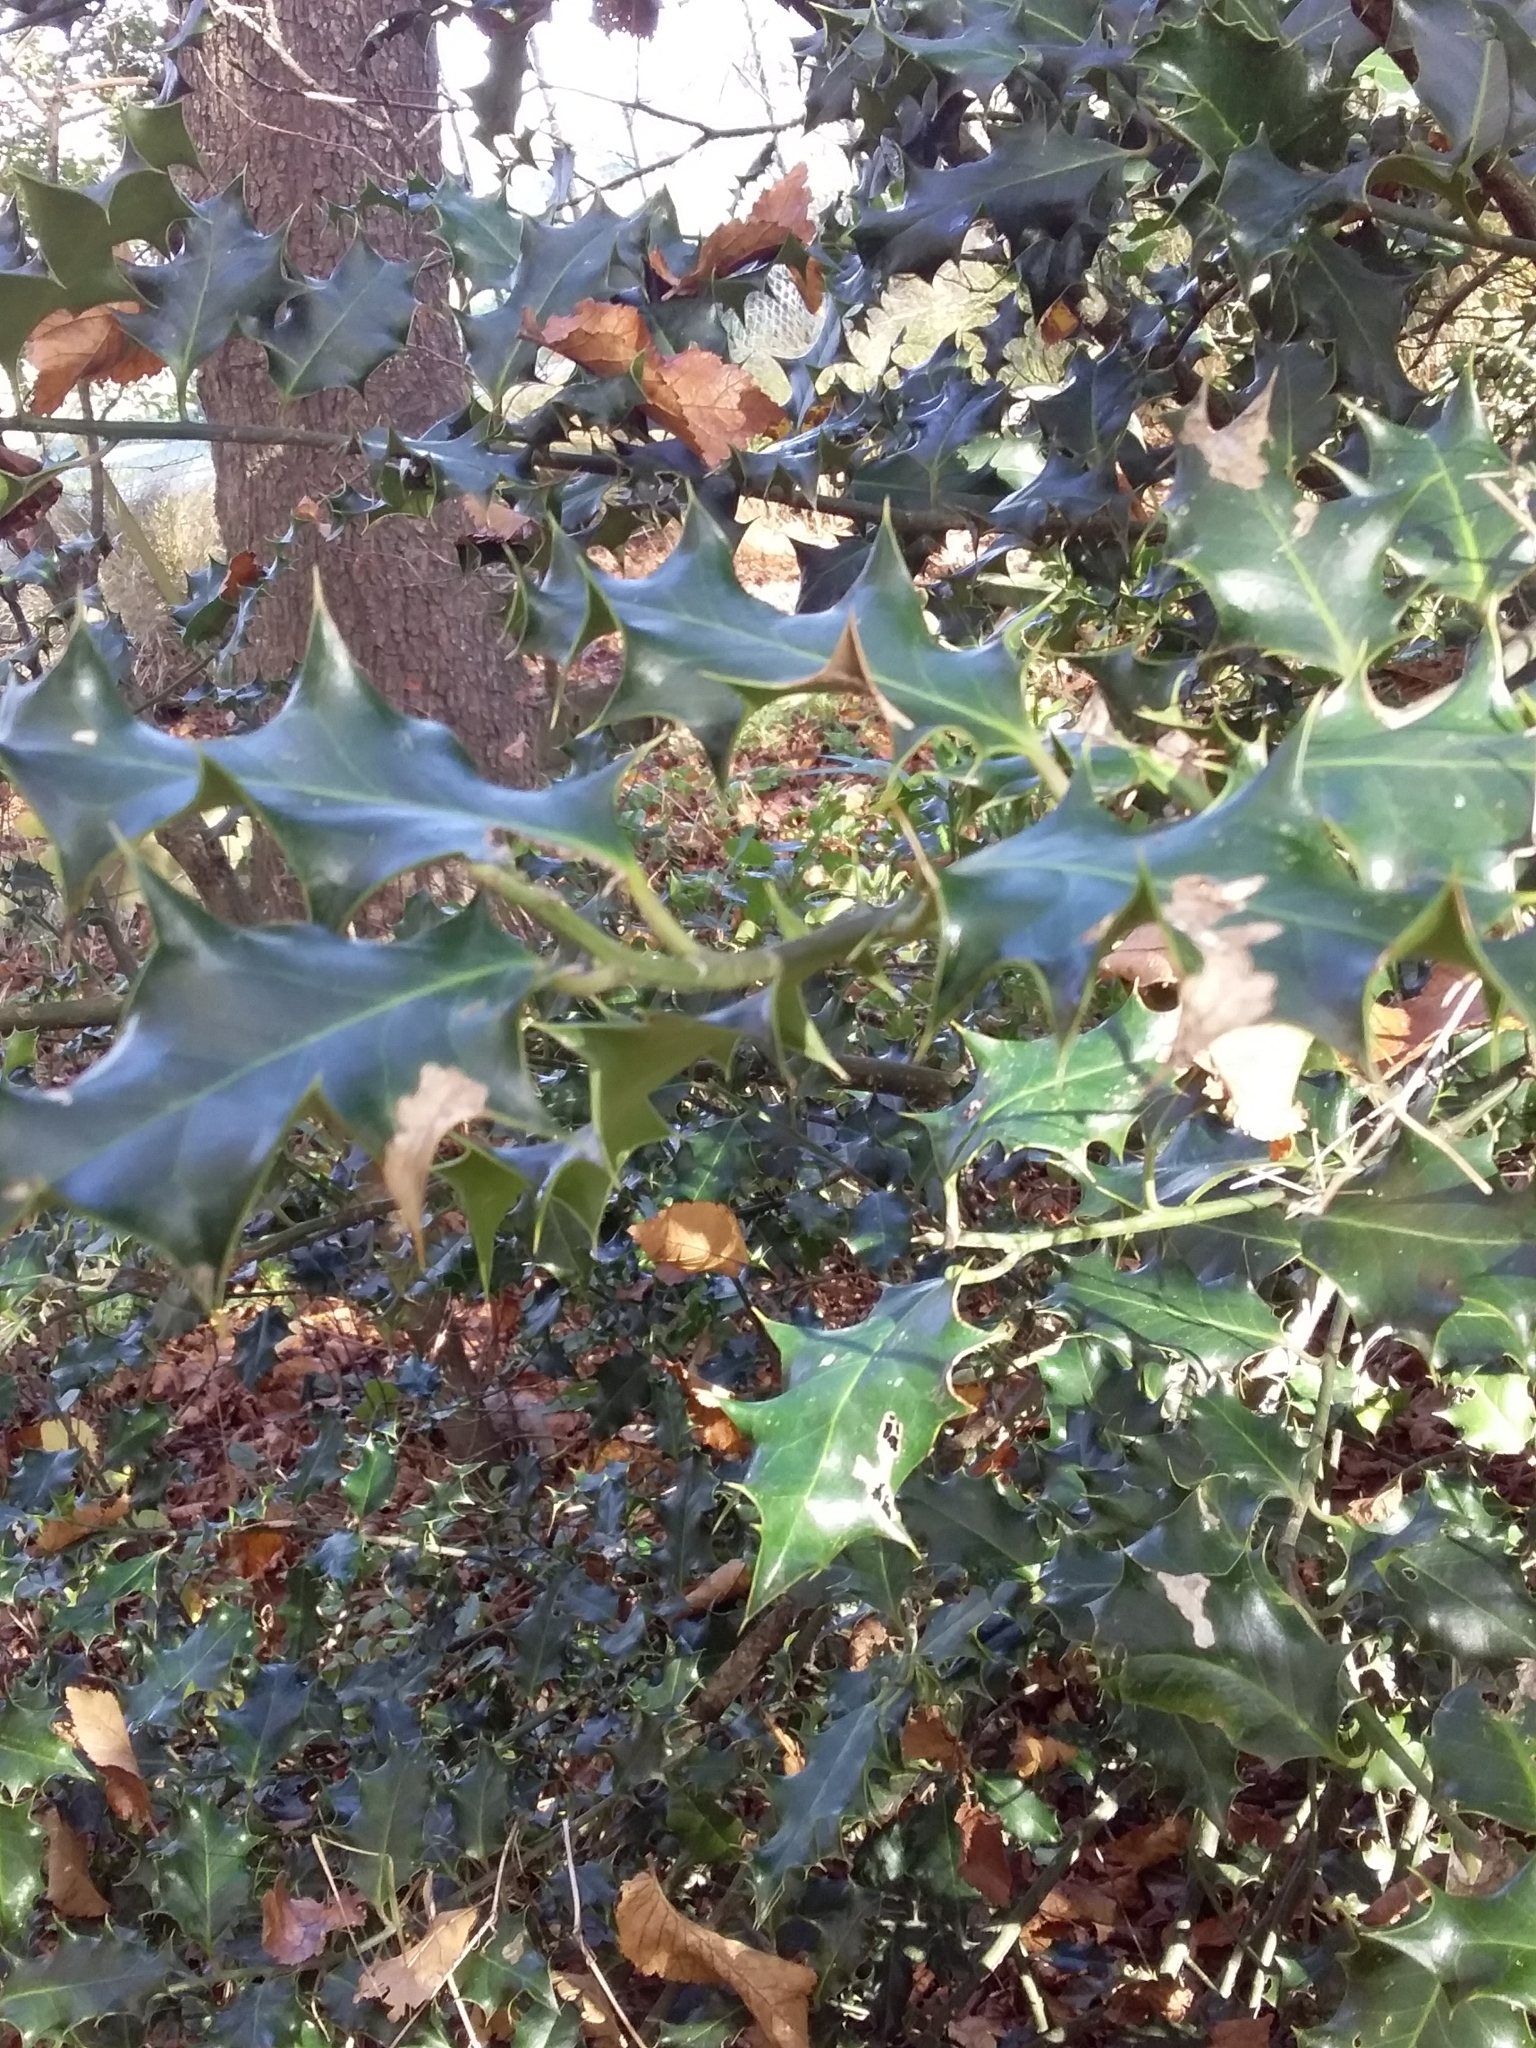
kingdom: Plantae
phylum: Tracheophyta
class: Magnoliopsida
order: Aquifoliales
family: Aquifoliaceae
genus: Ilex
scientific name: Ilex aquifolium
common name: English holly
